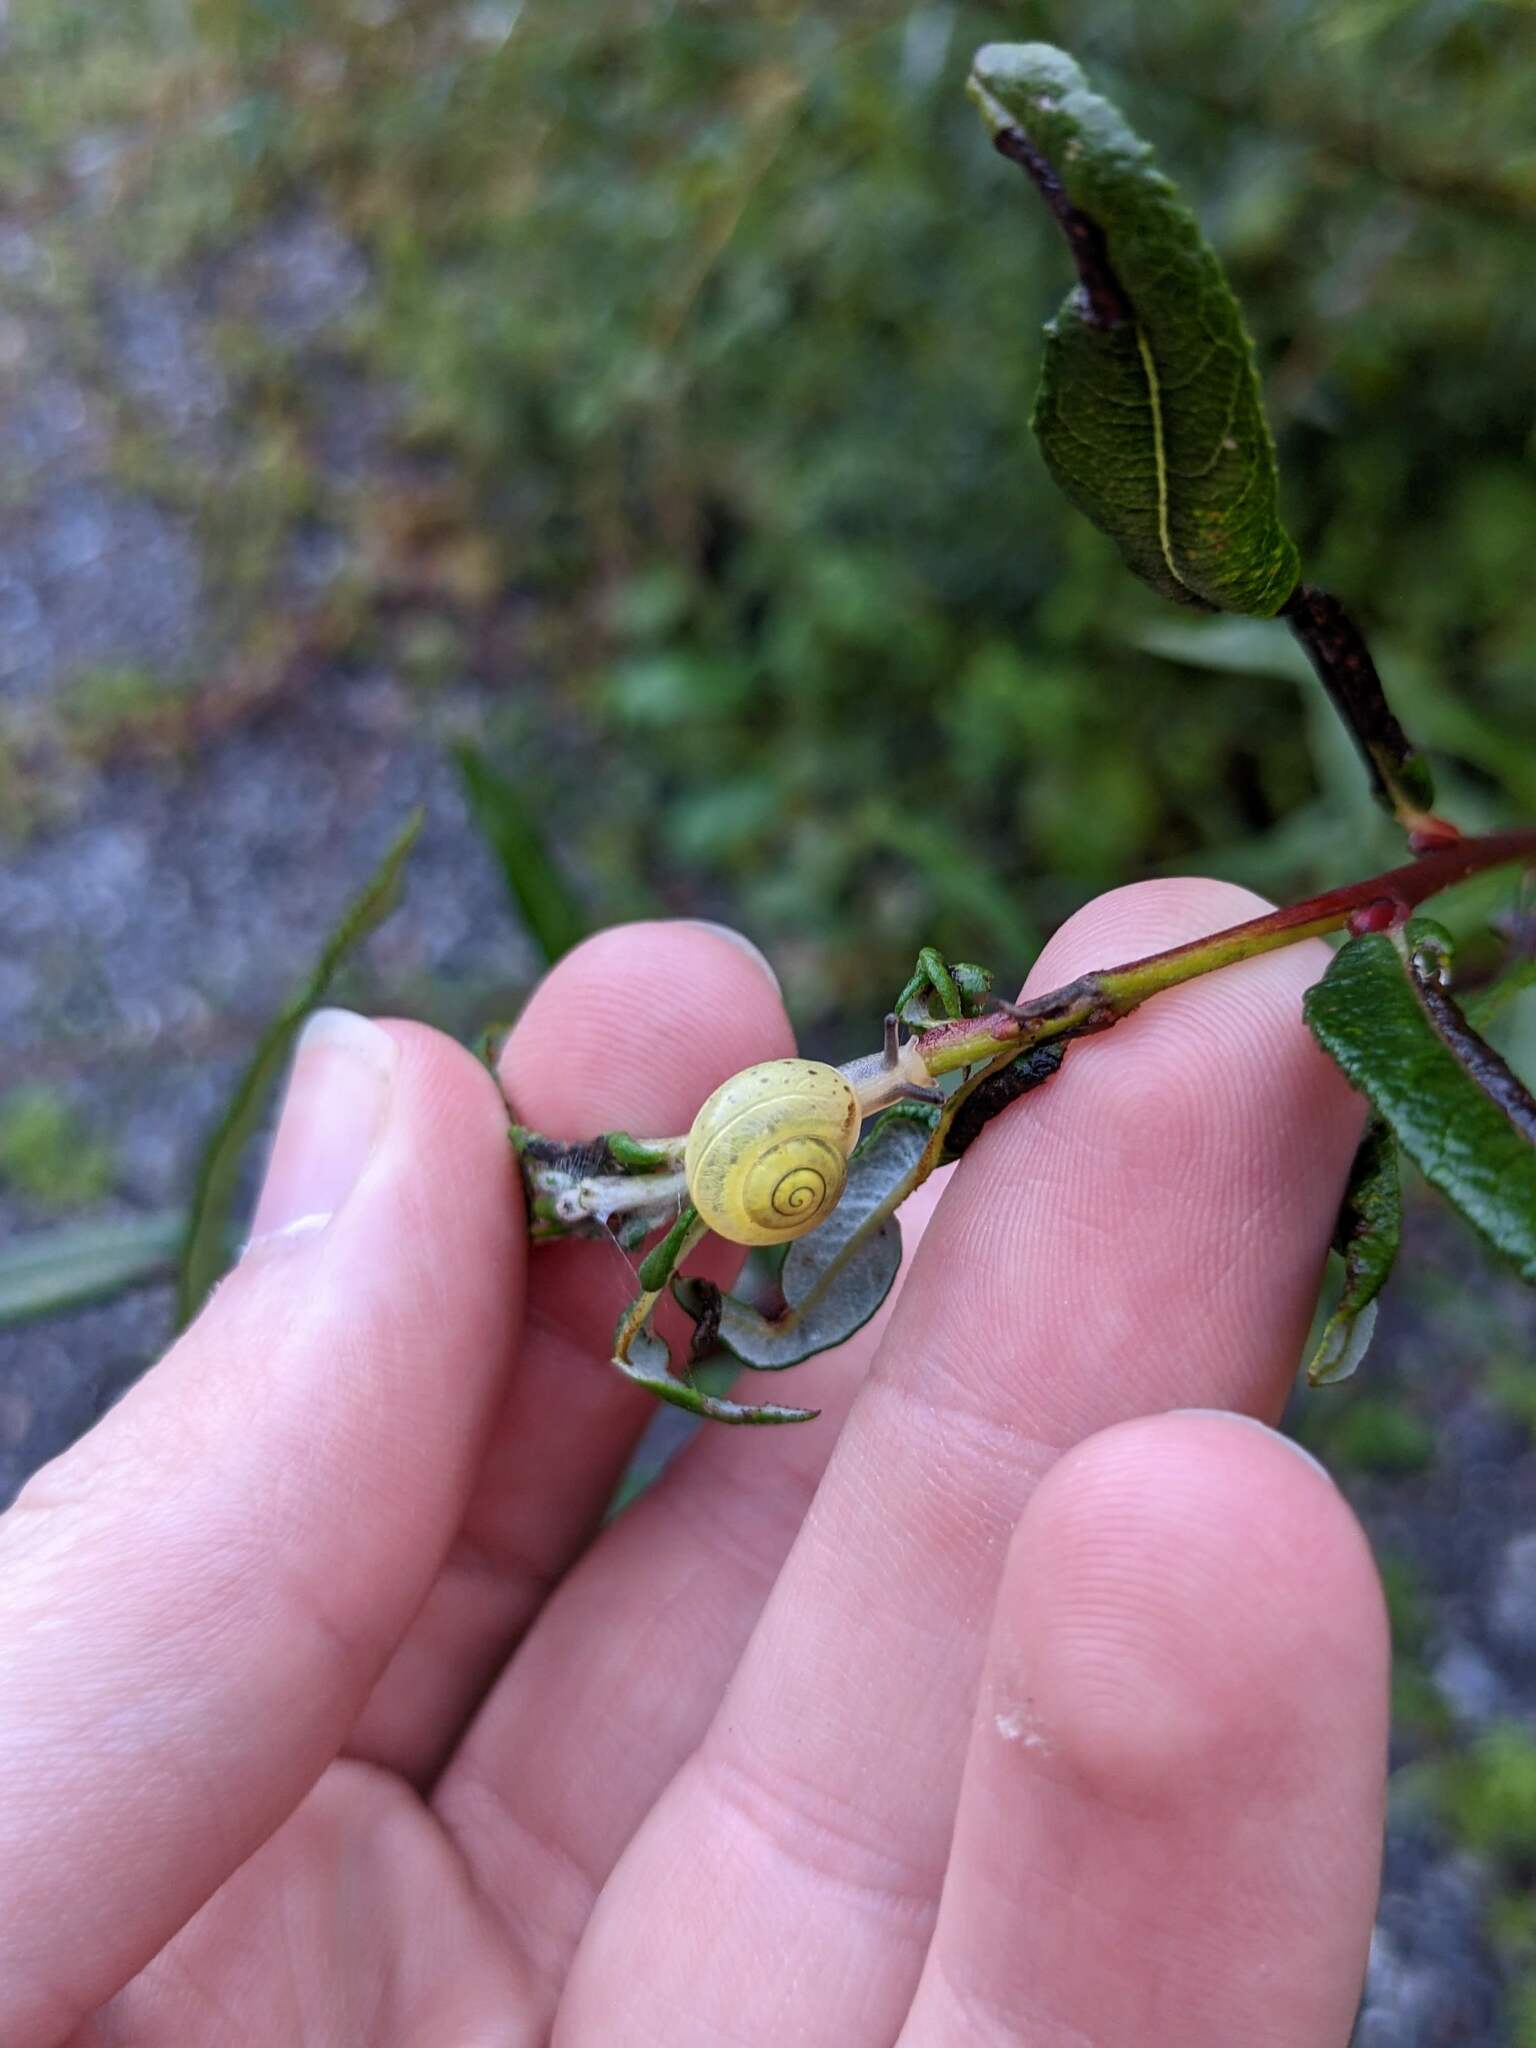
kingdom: Animalia
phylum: Mollusca
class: Gastropoda
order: Stylommatophora
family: Camaenidae
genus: Fruticicola
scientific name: Fruticicola fruticum
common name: Bush snail
